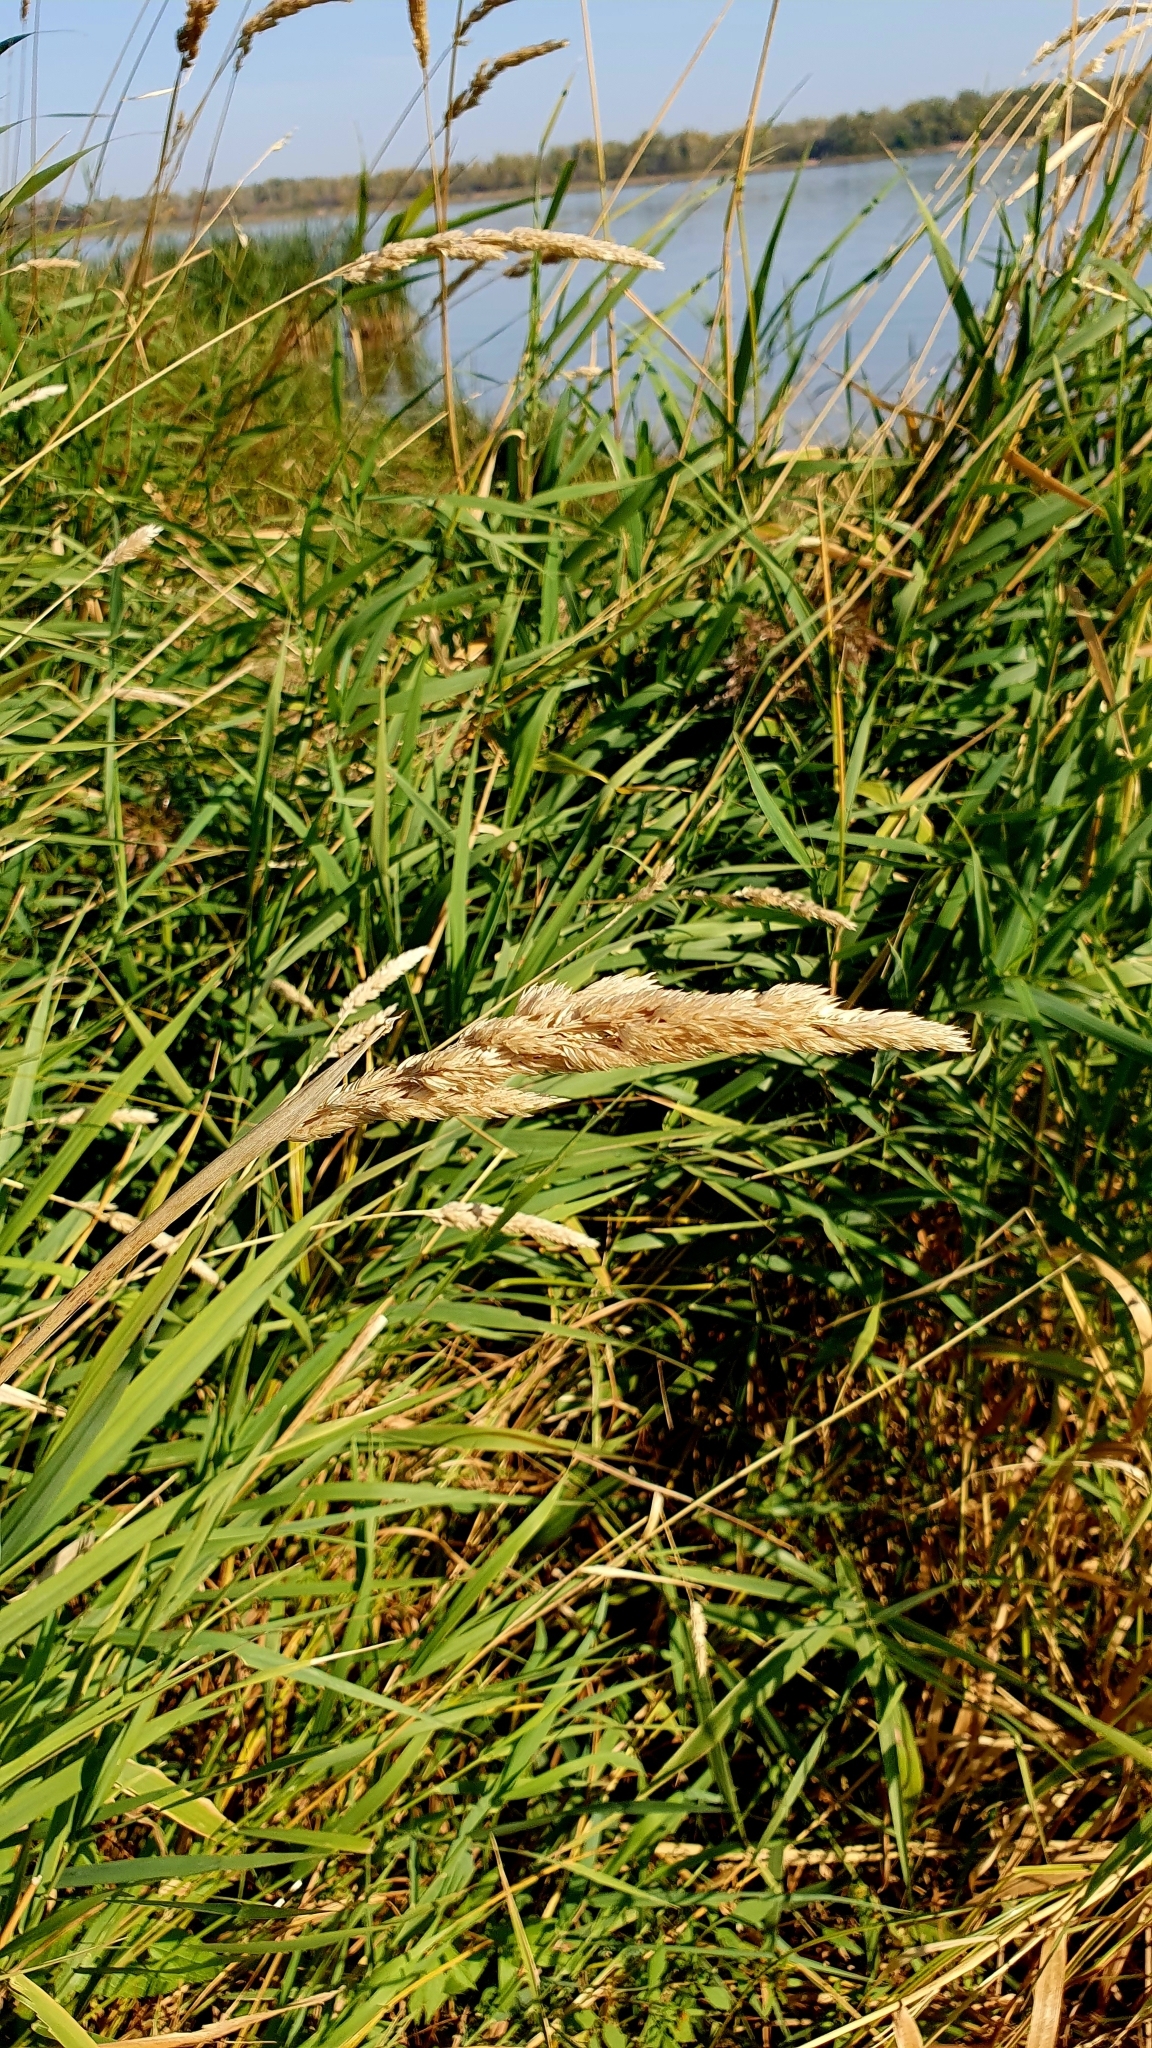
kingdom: Plantae
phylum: Tracheophyta
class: Liliopsida
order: Poales
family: Poaceae
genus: Phalaris
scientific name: Phalaris arundinacea
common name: Reed canary-grass
